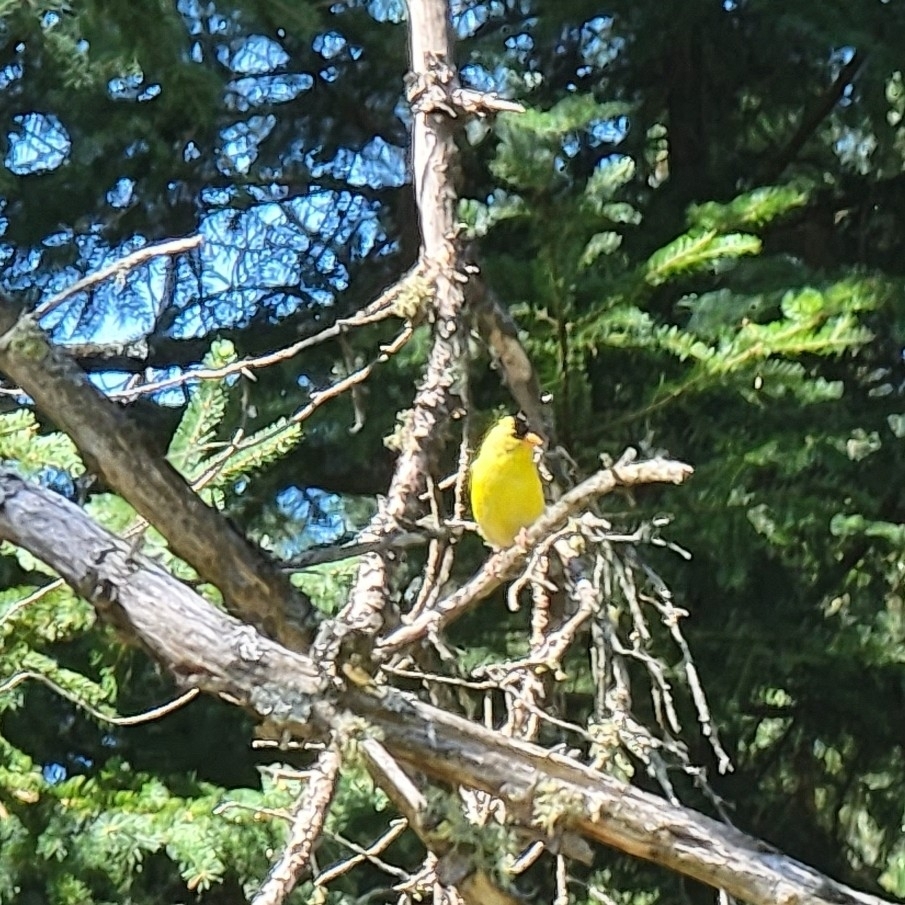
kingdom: Animalia
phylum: Chordata
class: Aves
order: Passeriformes
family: Fringillidae
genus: Spinus
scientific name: Spinus tristis
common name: American goldfinch
